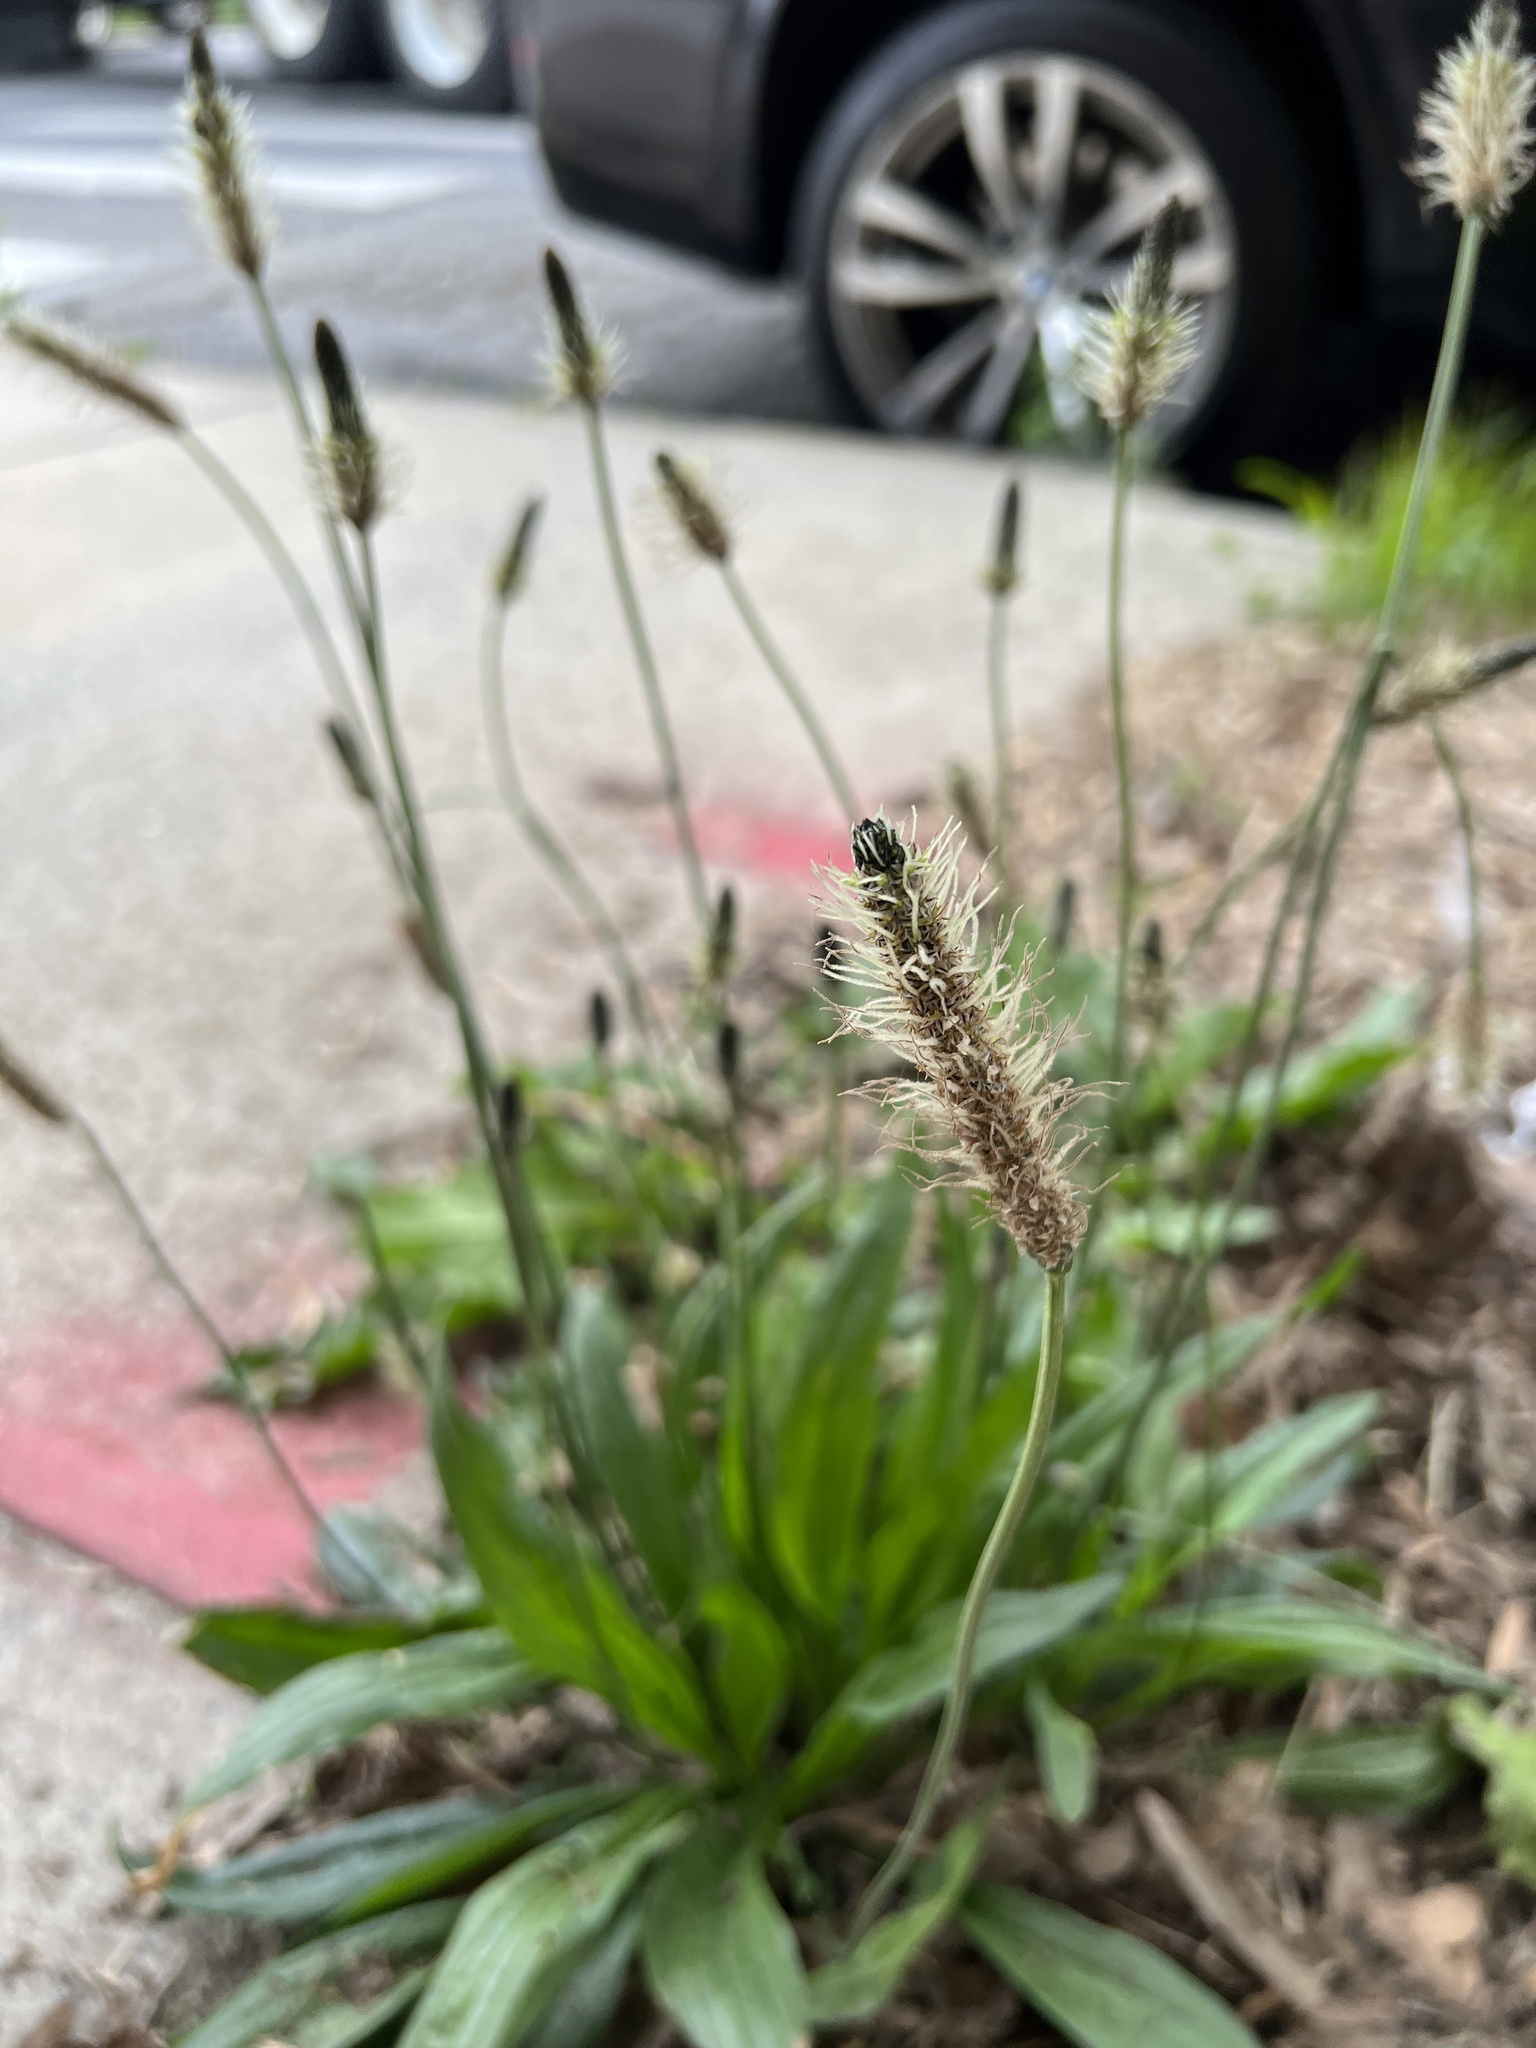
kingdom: Plantae
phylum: Tracheophyta
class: Magnoliopsida
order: Lamiales
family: Plantaginaceae
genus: Plantago
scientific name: Plantago lanceolata
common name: Ribwort plantain
